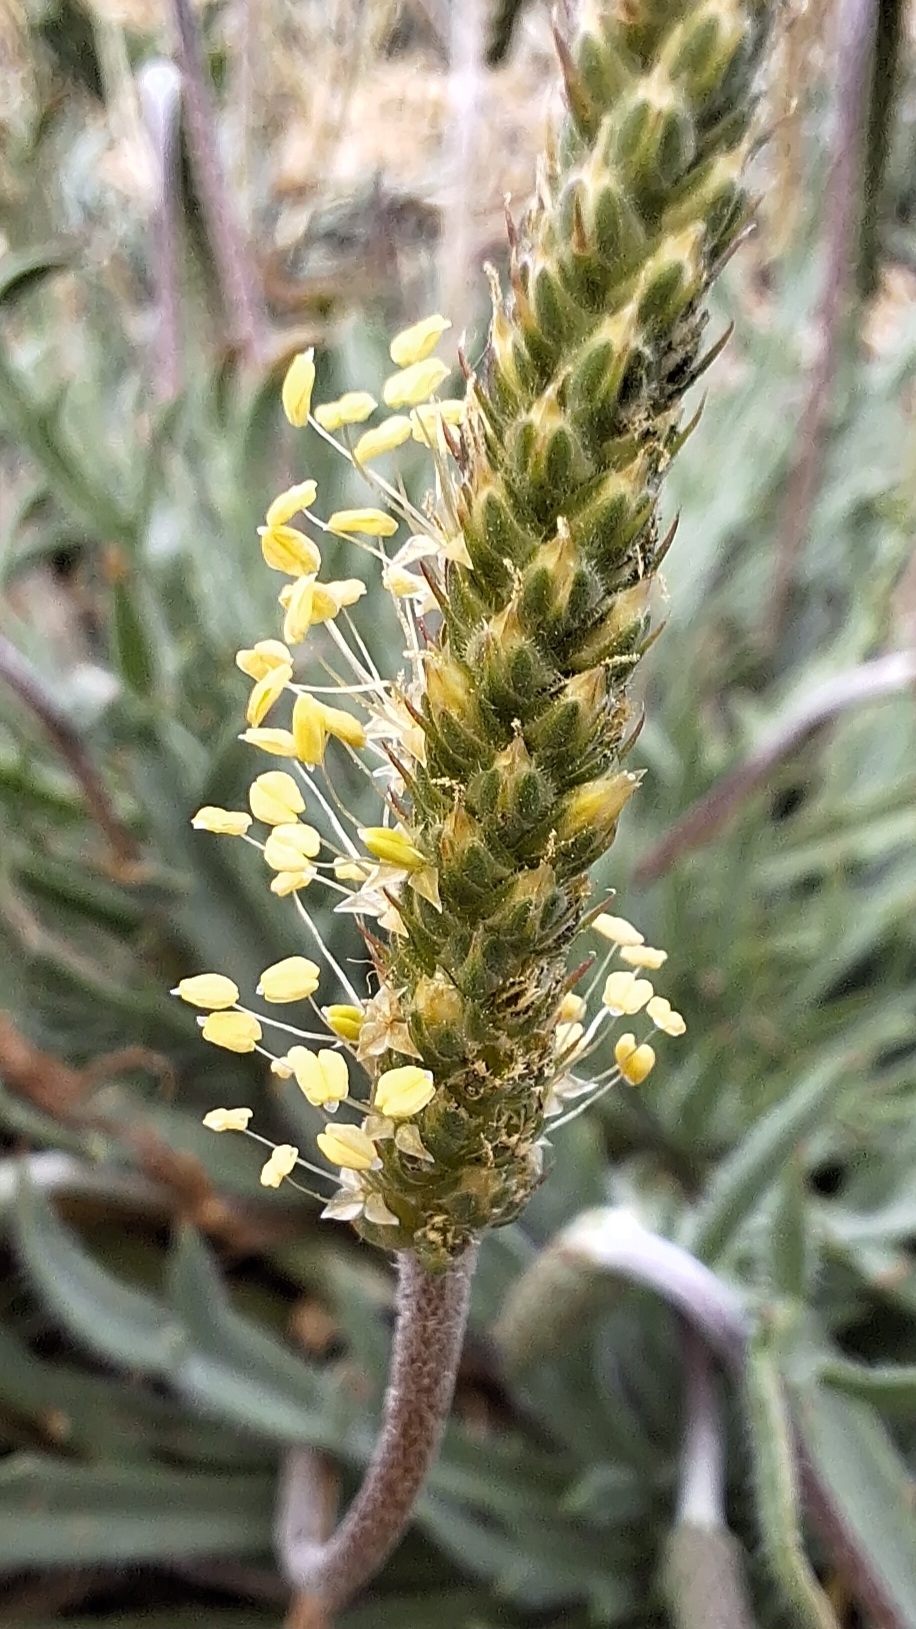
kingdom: Plantae
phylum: Tracheophyta
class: Magnoliopsida
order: Lamiales
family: Plantaginaceae
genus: Plantago
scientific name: Plantago coronopus
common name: Buck's-horn plantain
